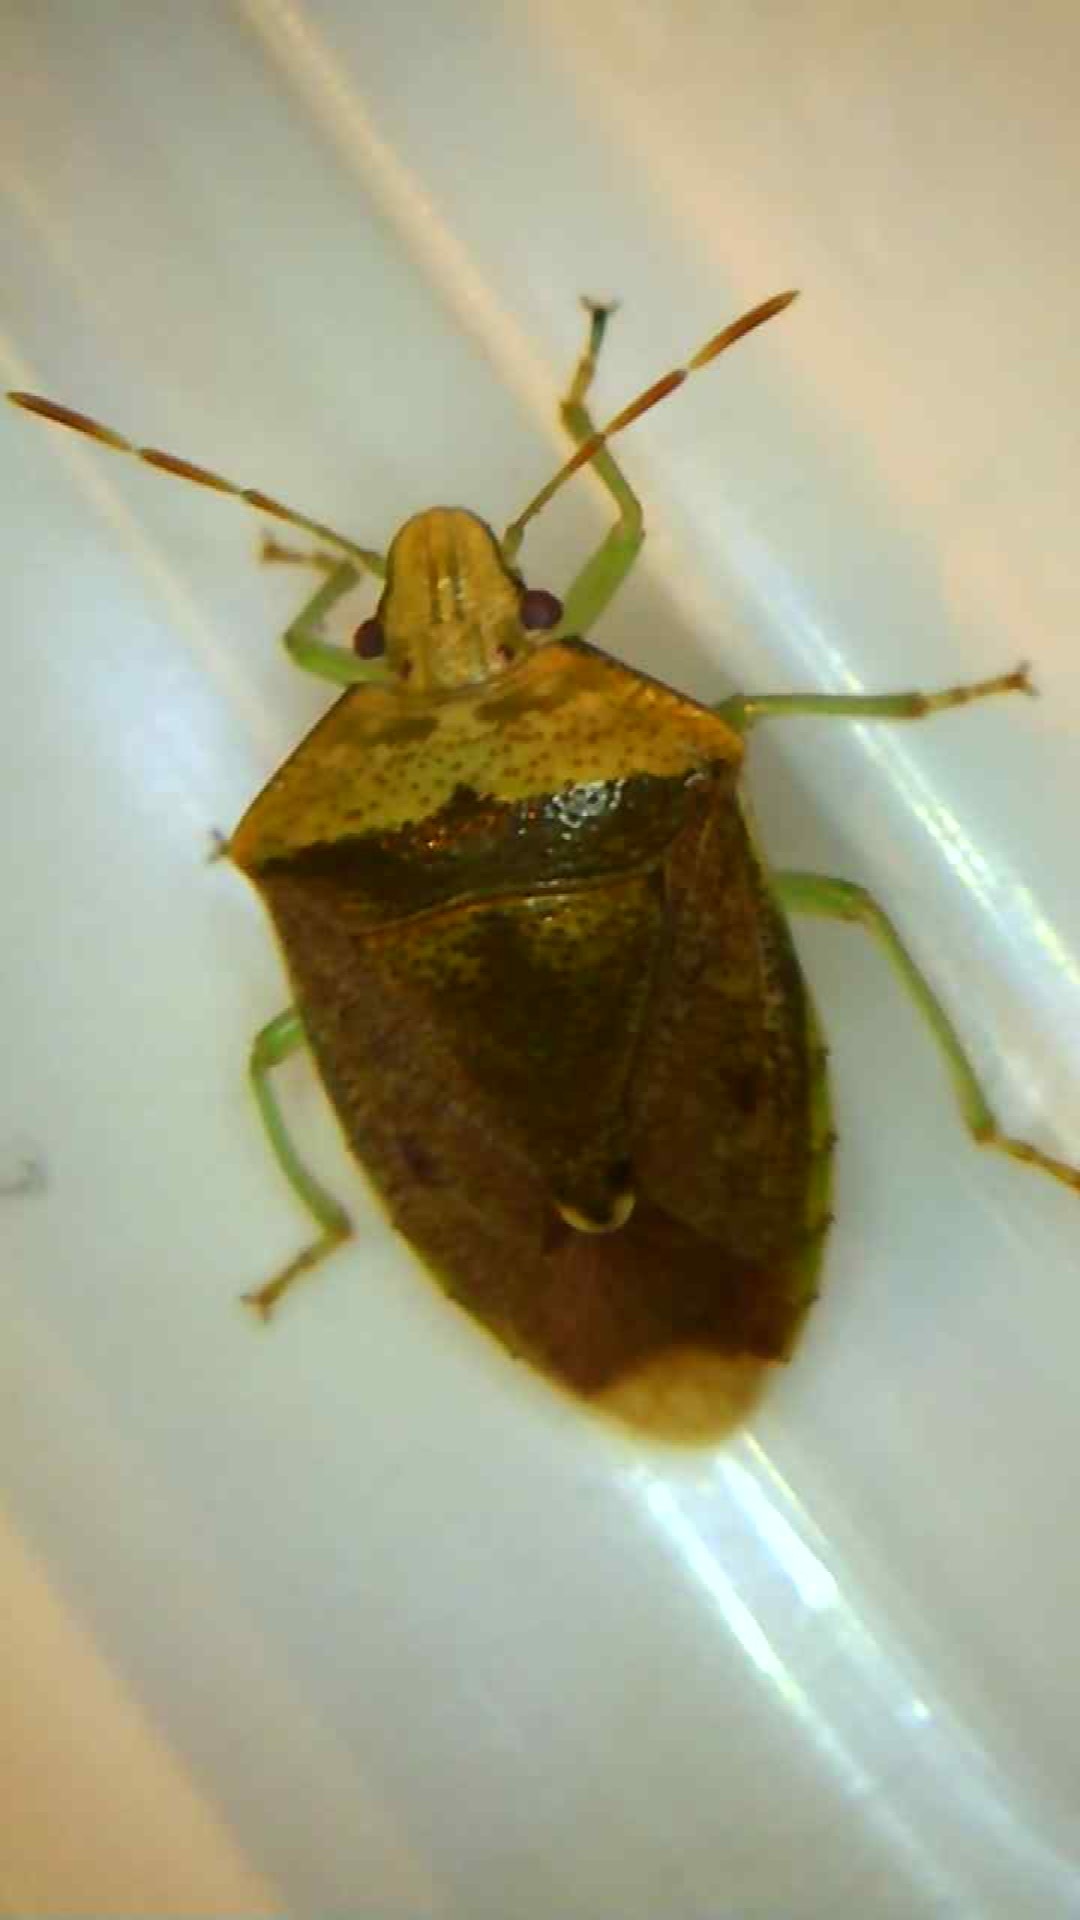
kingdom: Animalia
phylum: Arthropoda
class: Insecta
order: Hemiptera
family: Pentatomidae
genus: Banasa
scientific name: Banasa calva
